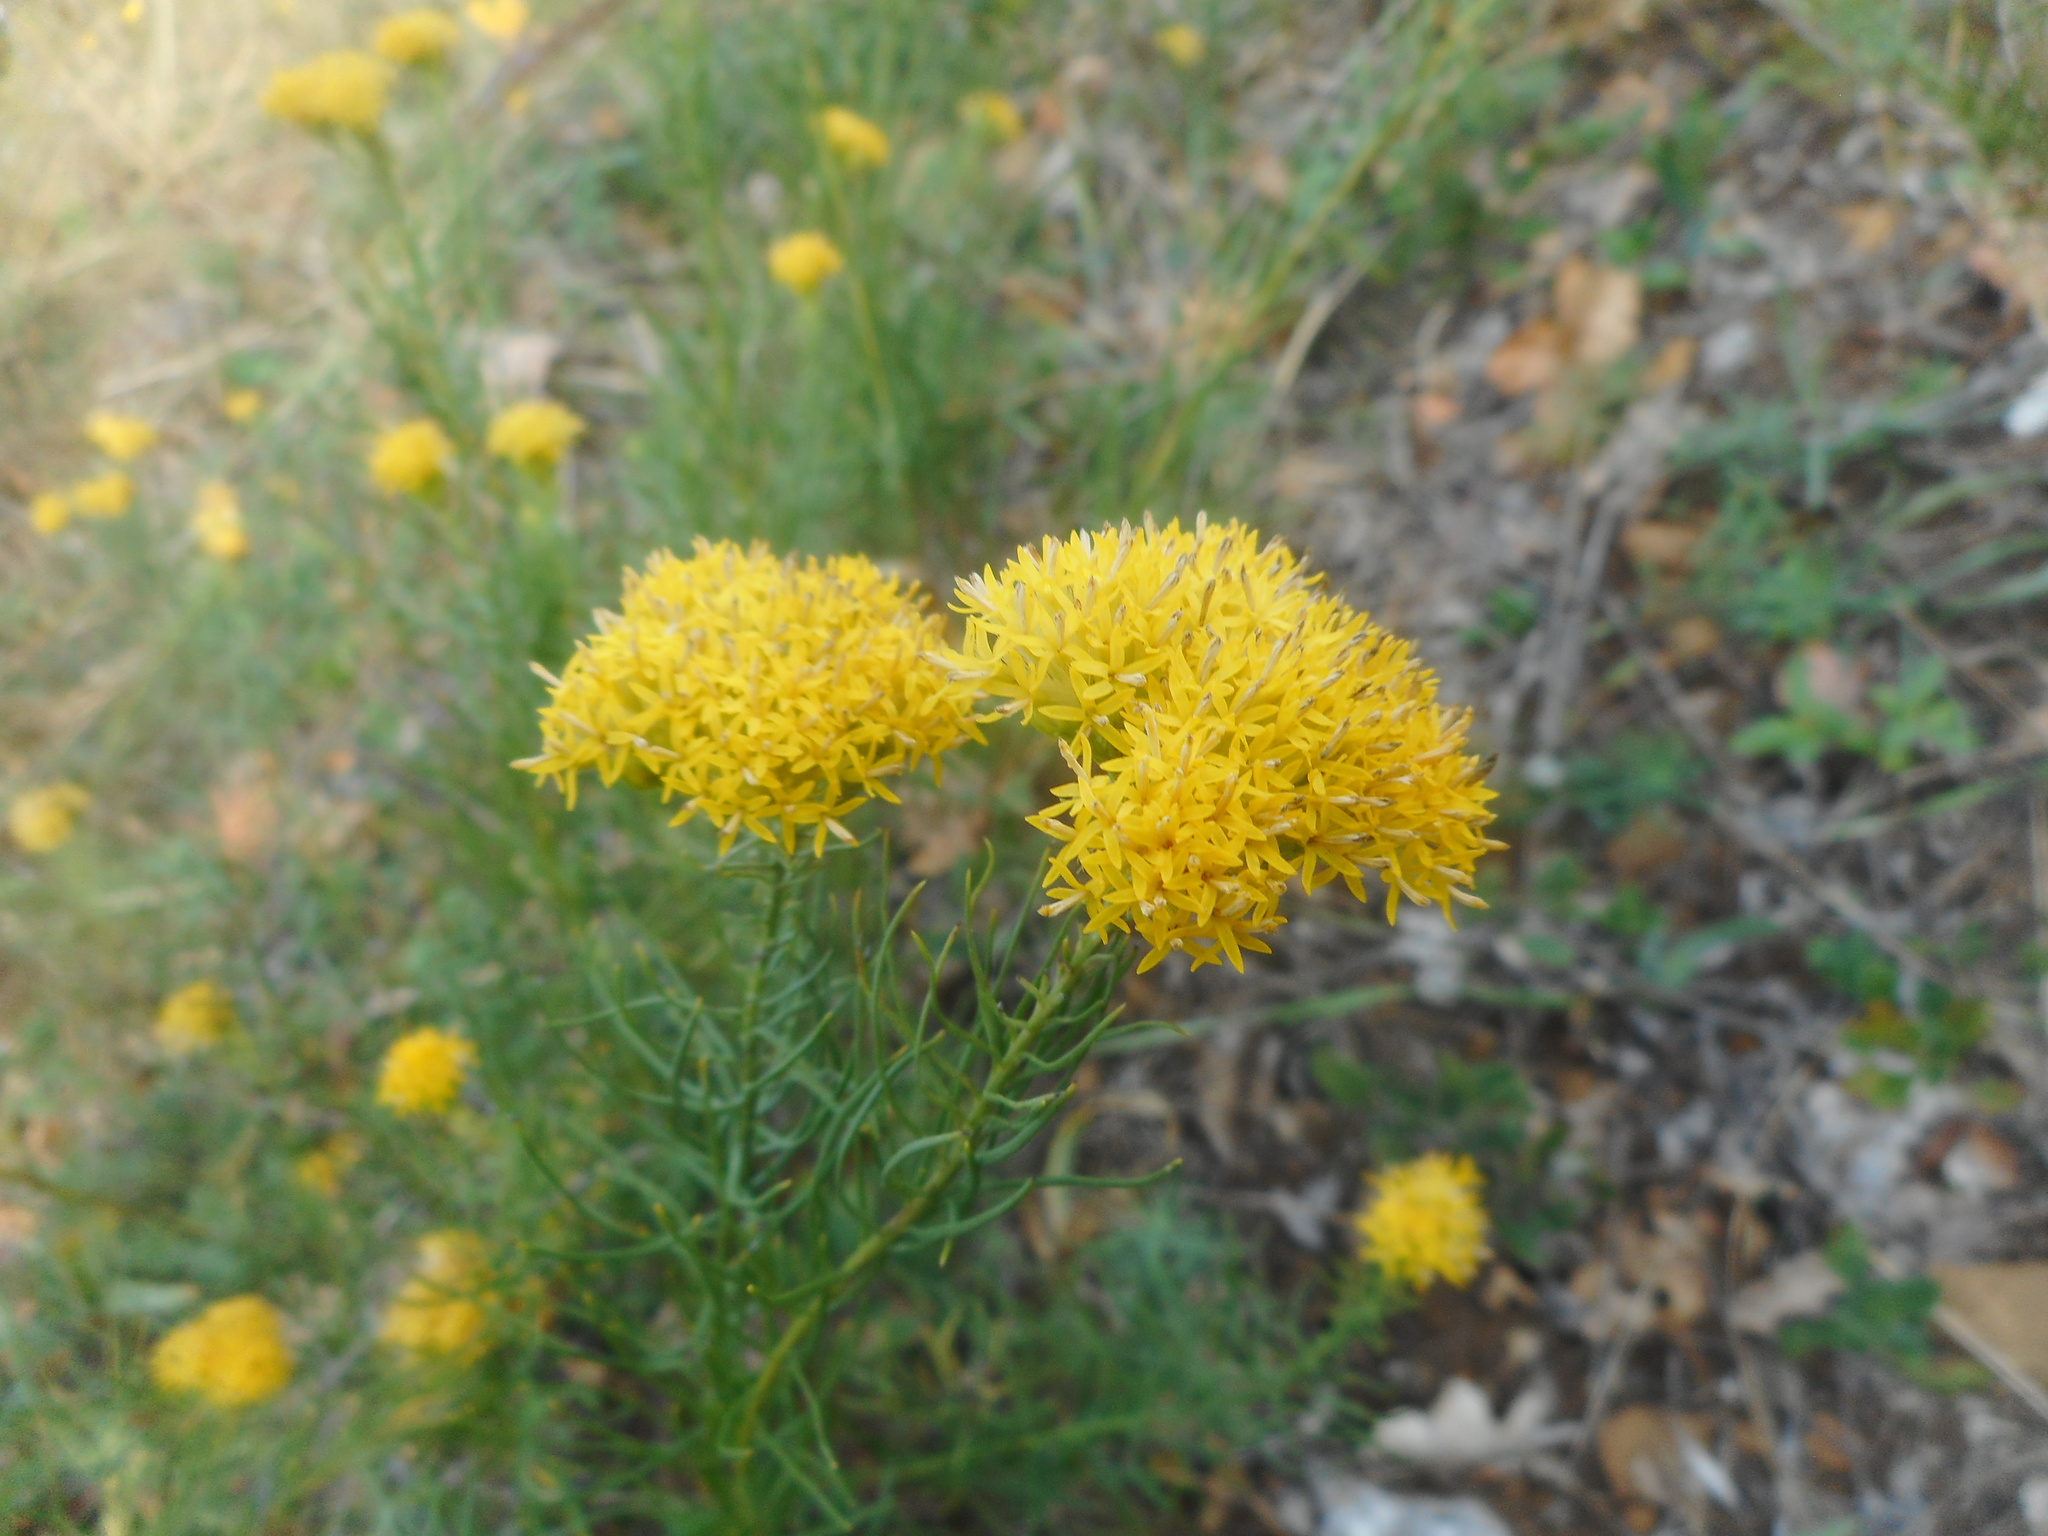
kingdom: Plantae
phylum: Tracheophyta
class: Magnoliopsida
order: Asterales
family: Asteraceae
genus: Galatella
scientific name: Galatella linosyris
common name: Goldilocks aster
